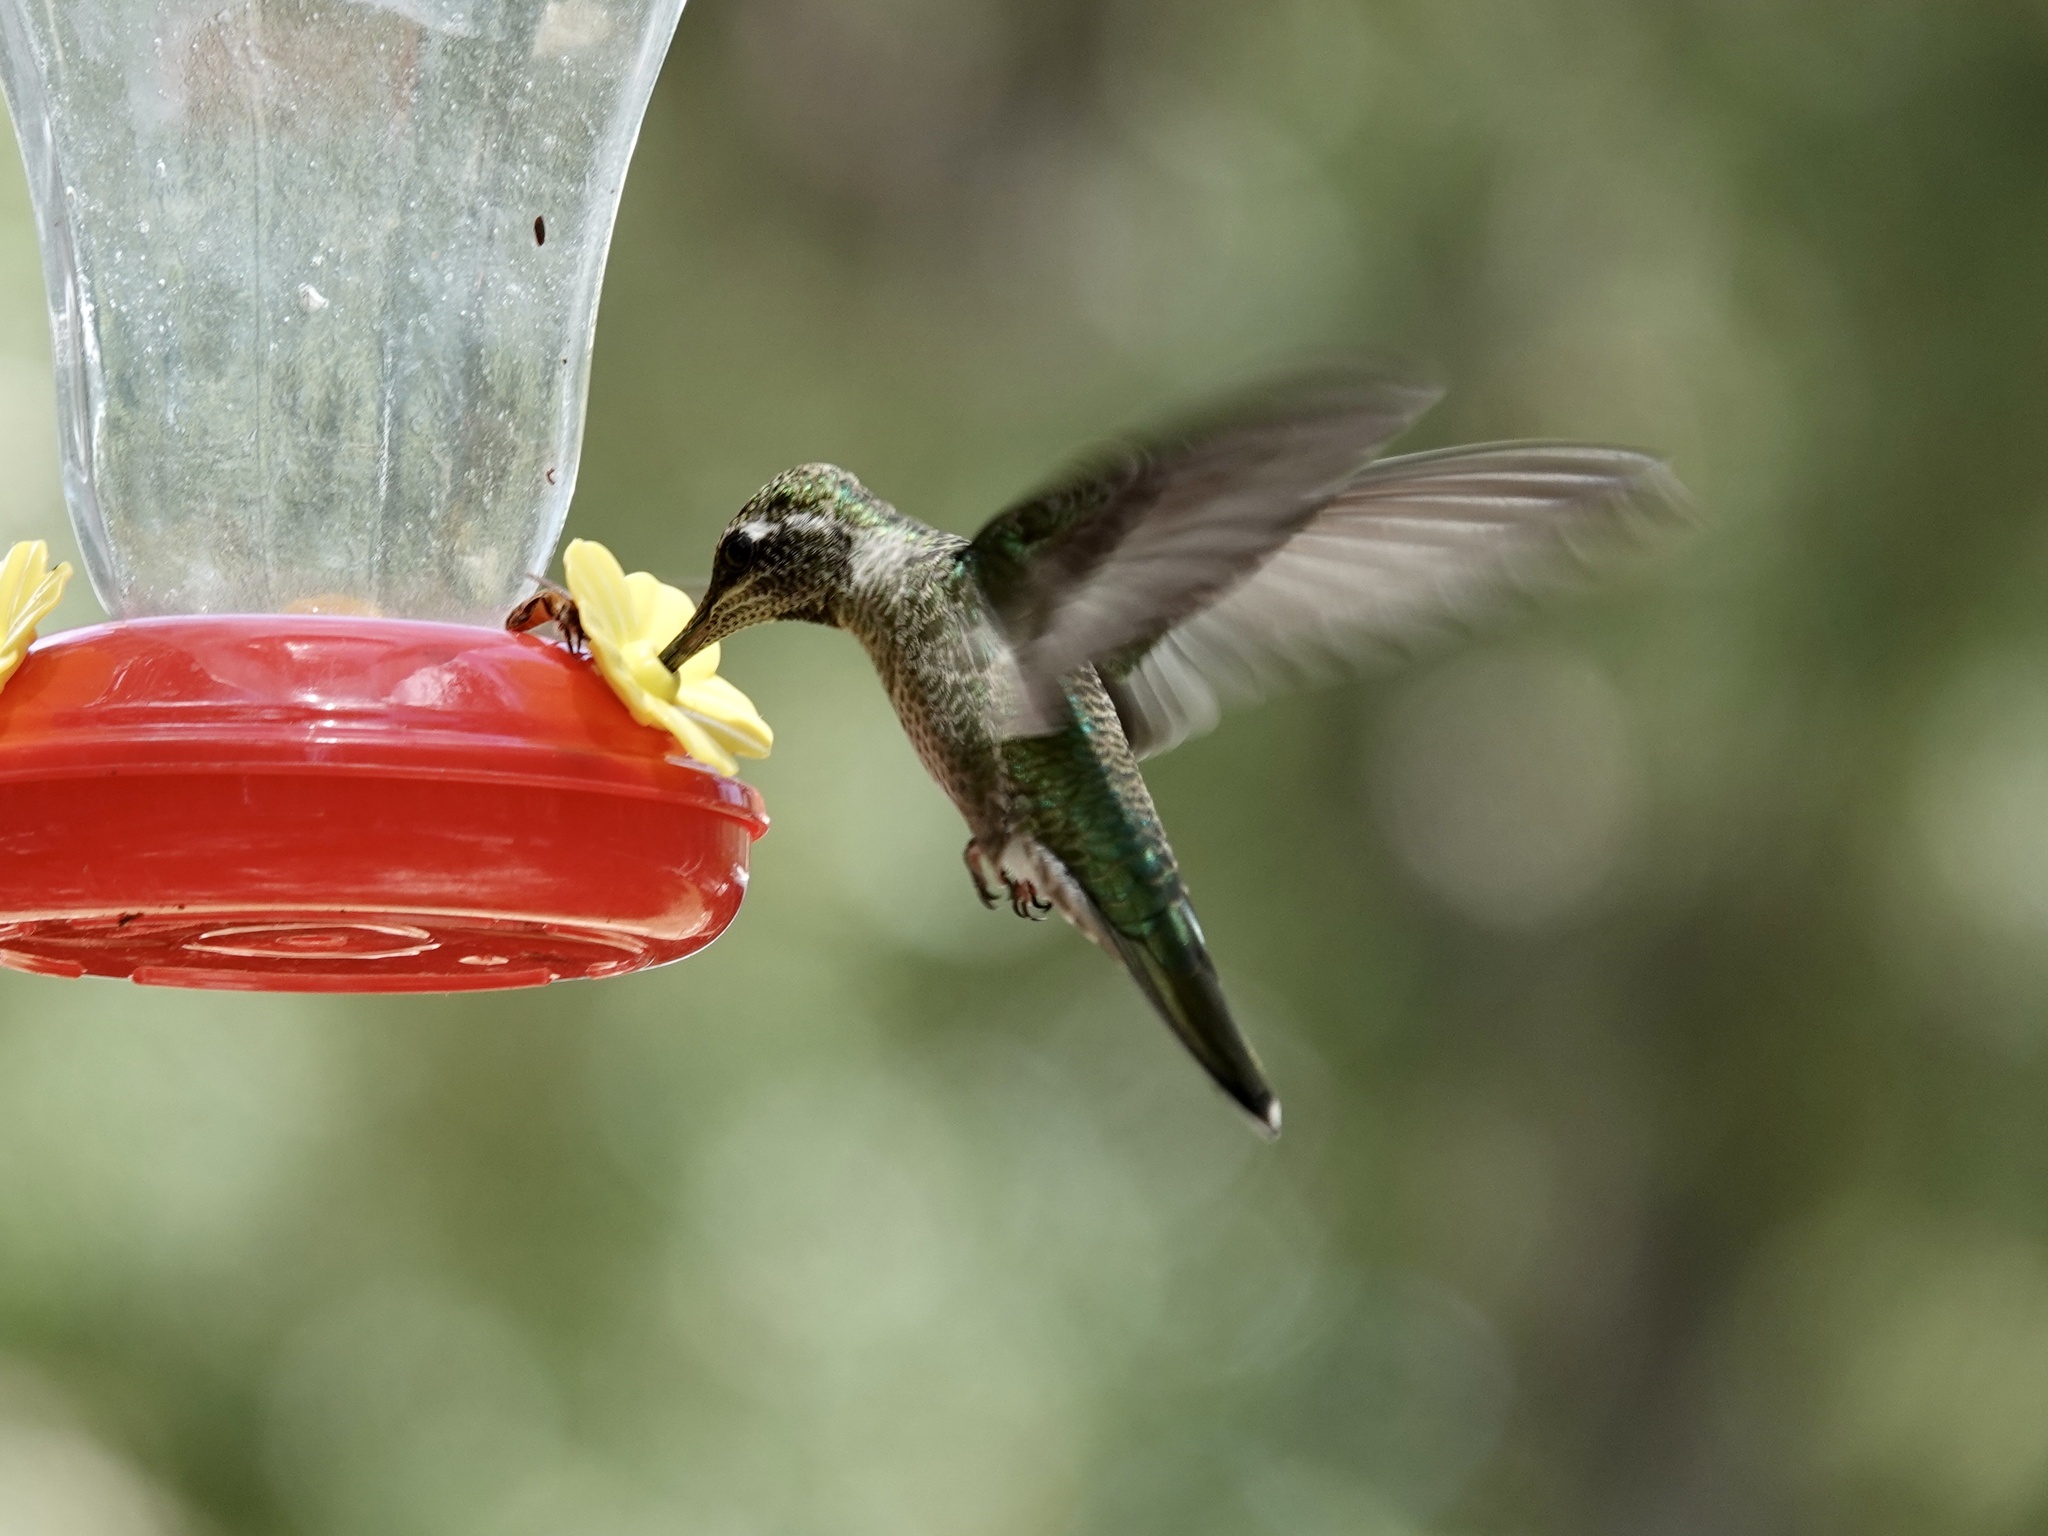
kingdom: Animalia
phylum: Chordata
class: Aves
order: Apodiformes
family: Trochilidae
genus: Eugenes
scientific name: Eugenes fulgens
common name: Magnificent hummingbird
